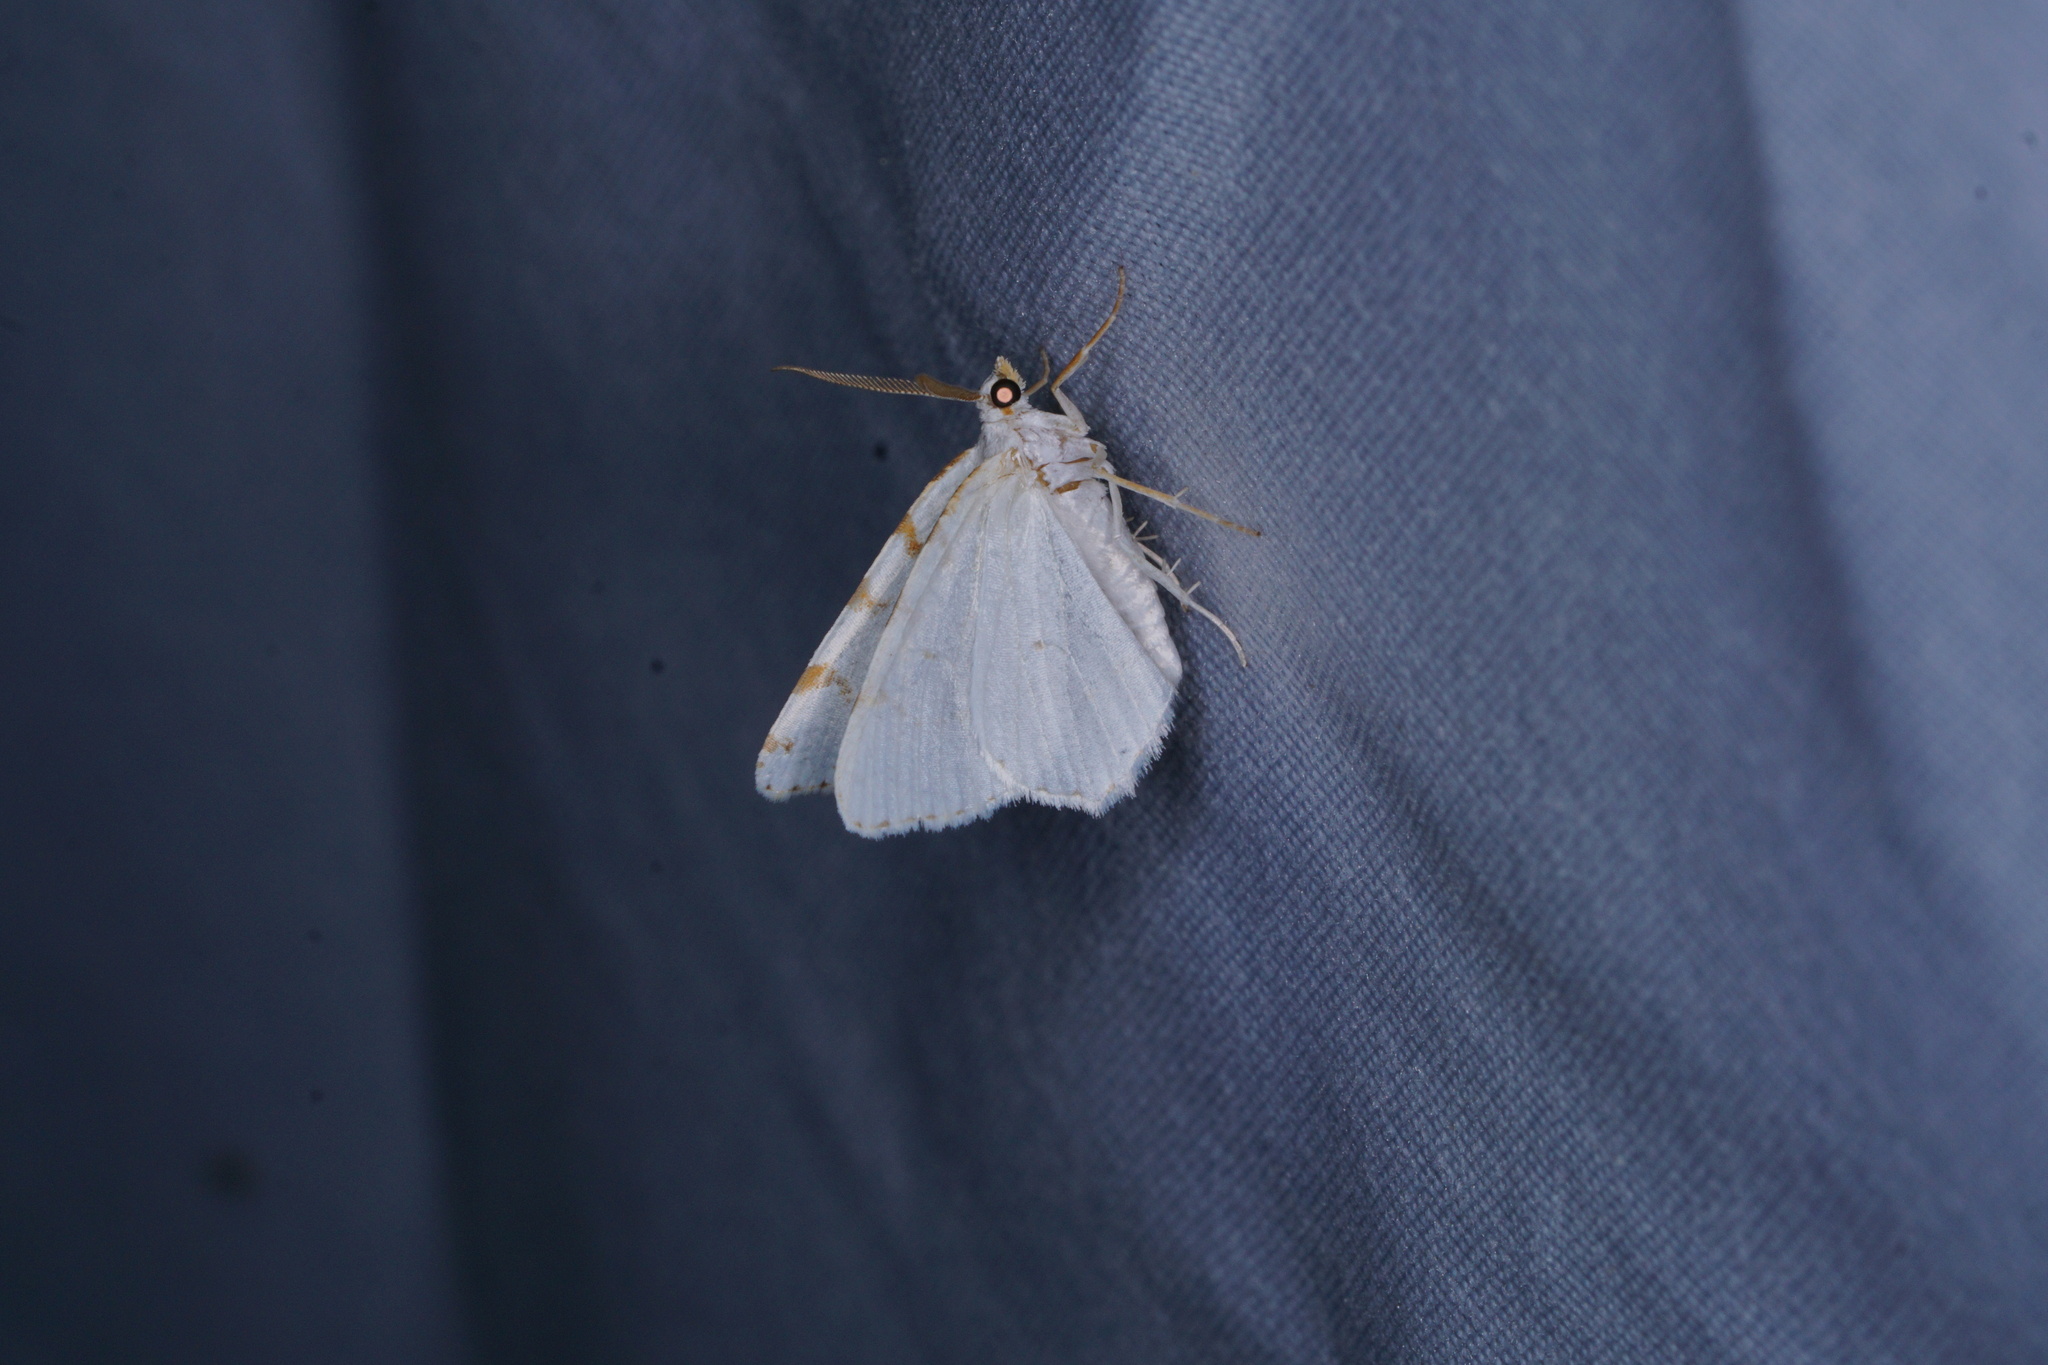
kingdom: Animalia
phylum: Arthropoda
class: Insecta
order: Lepidoptera
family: Geometridae
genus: Macaria
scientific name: Macaria pustularia
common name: Lesser maple spanworm moth
